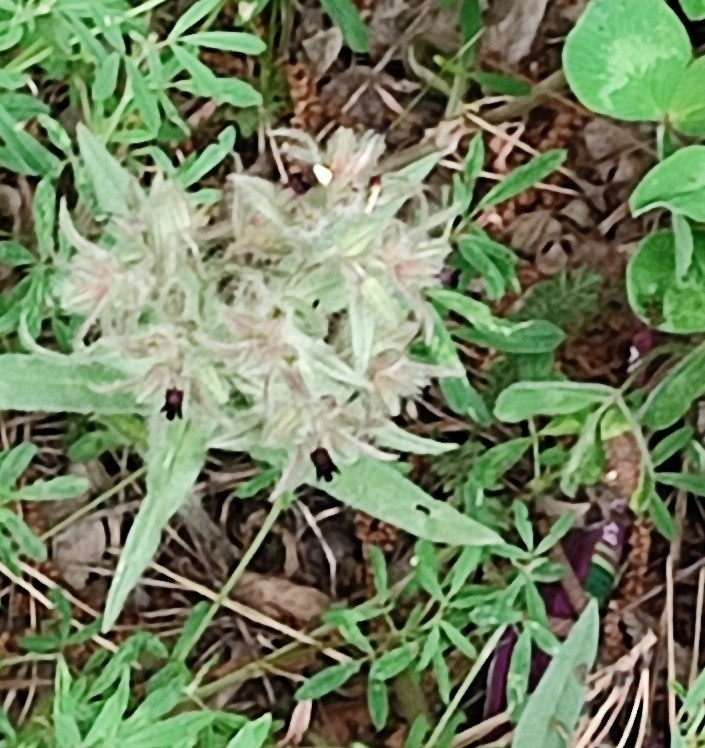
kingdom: Plantae
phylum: Tracheophyta
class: Magnoliopsida
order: Boraginales
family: Boraginaceae
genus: Nonea
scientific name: Nonea pulla
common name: Brown nonea
